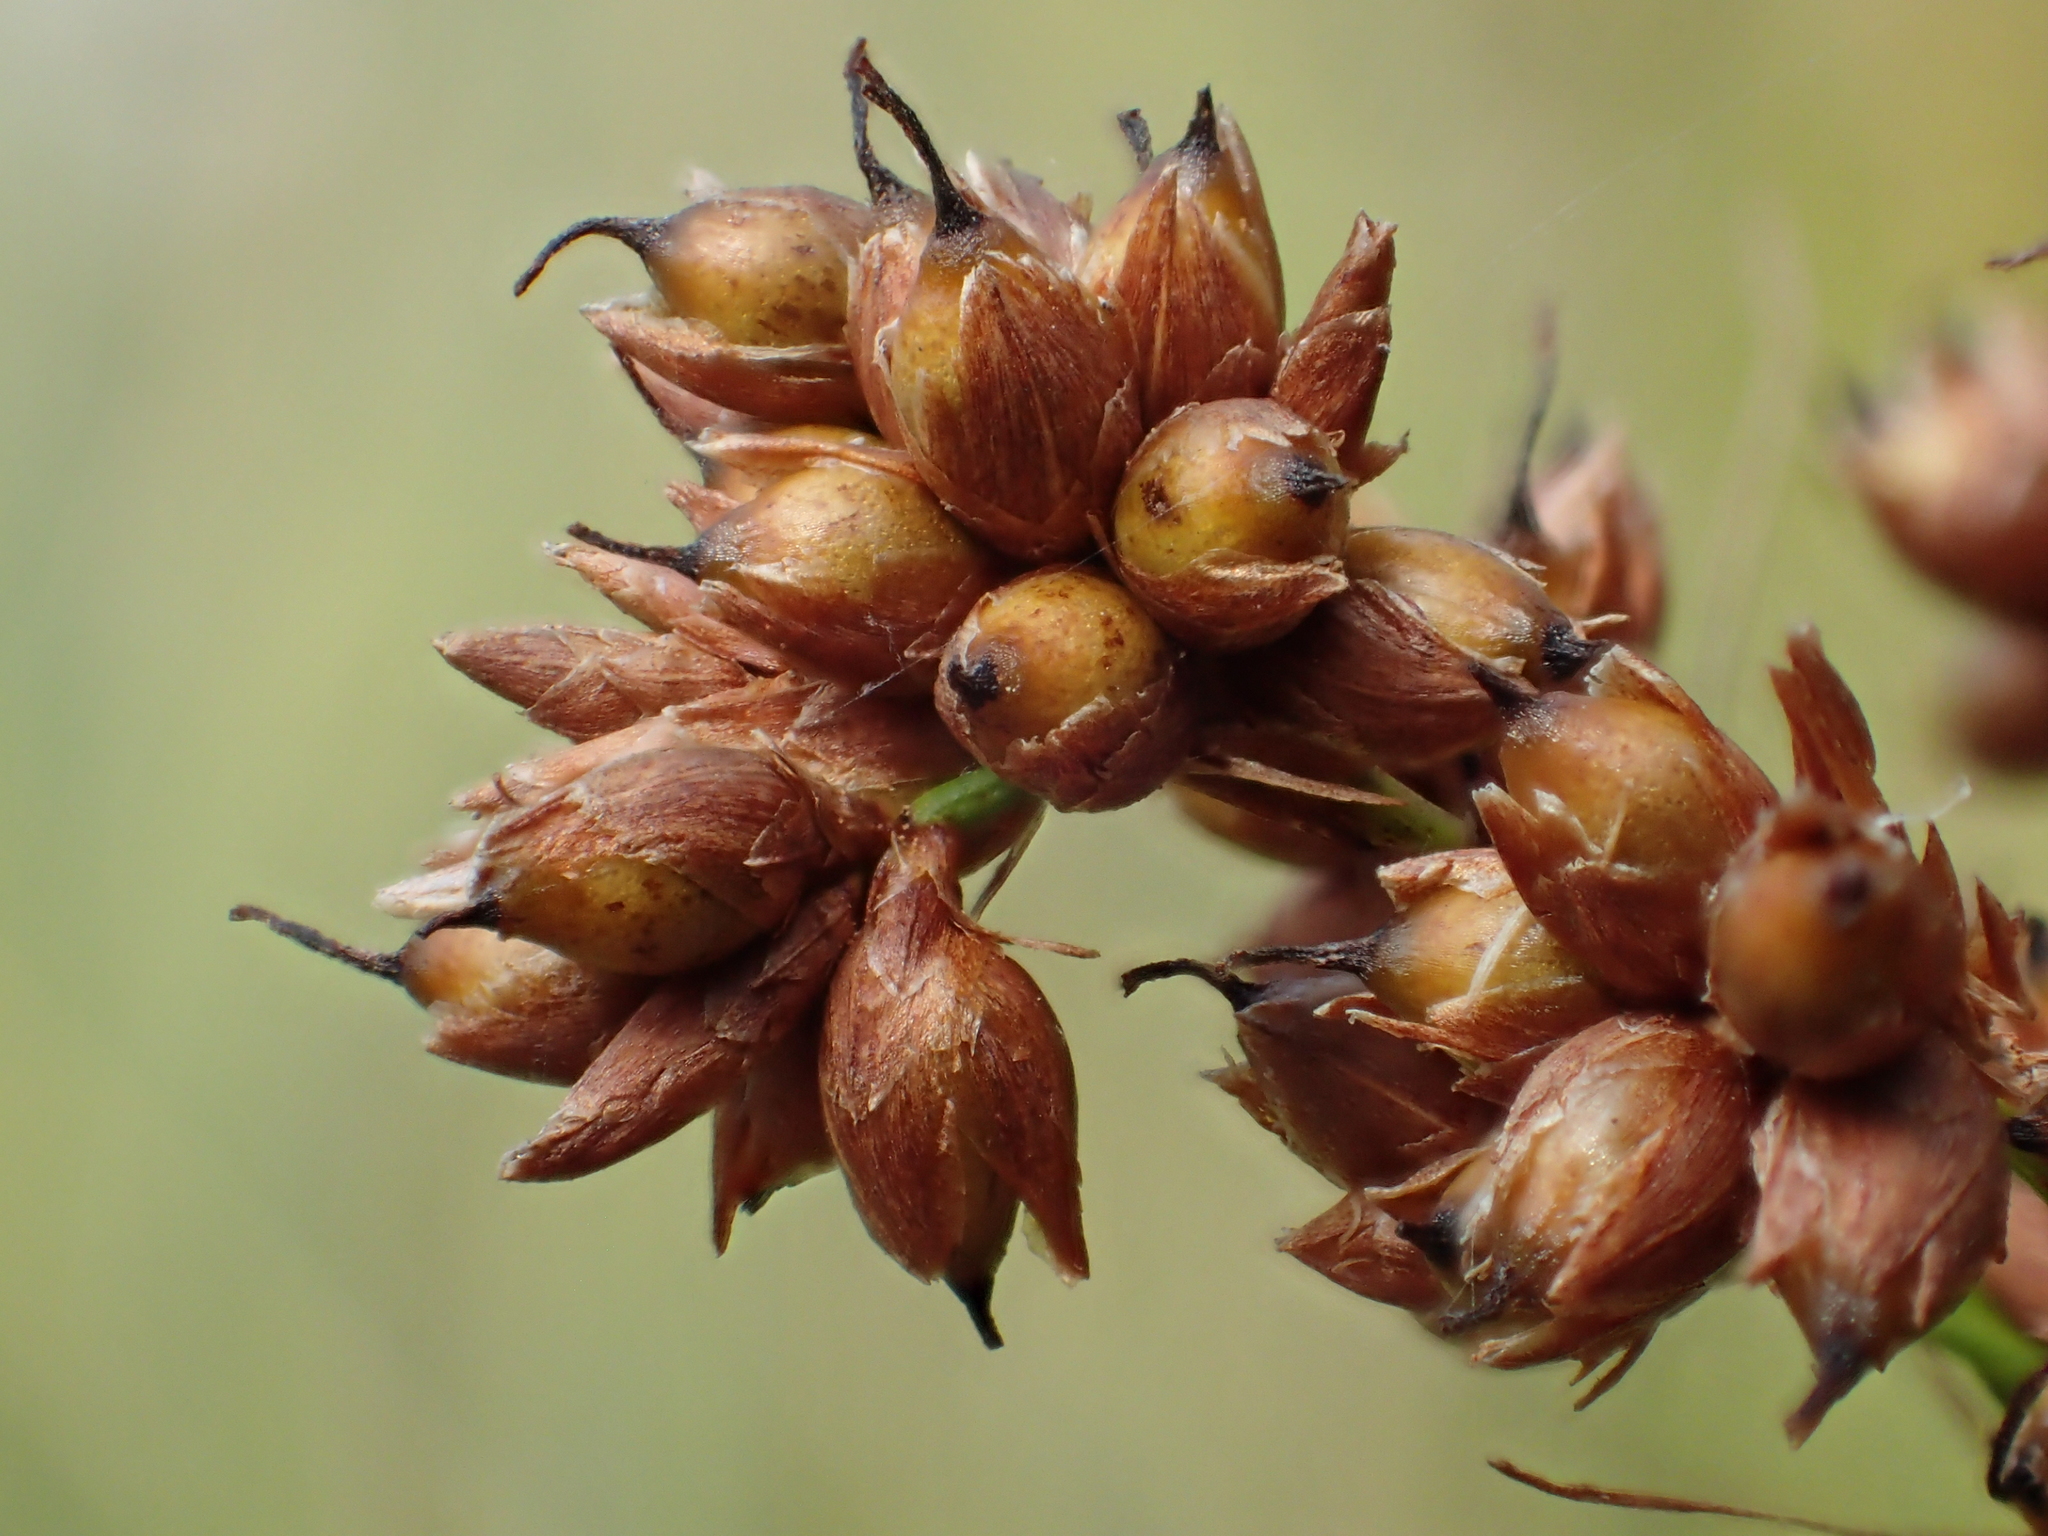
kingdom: Plantae
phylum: Tracheophyta
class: Liliopsida
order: Poales
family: Cyperaceae
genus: Cladium
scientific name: Cladium mariscus
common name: Great fen-sedge
